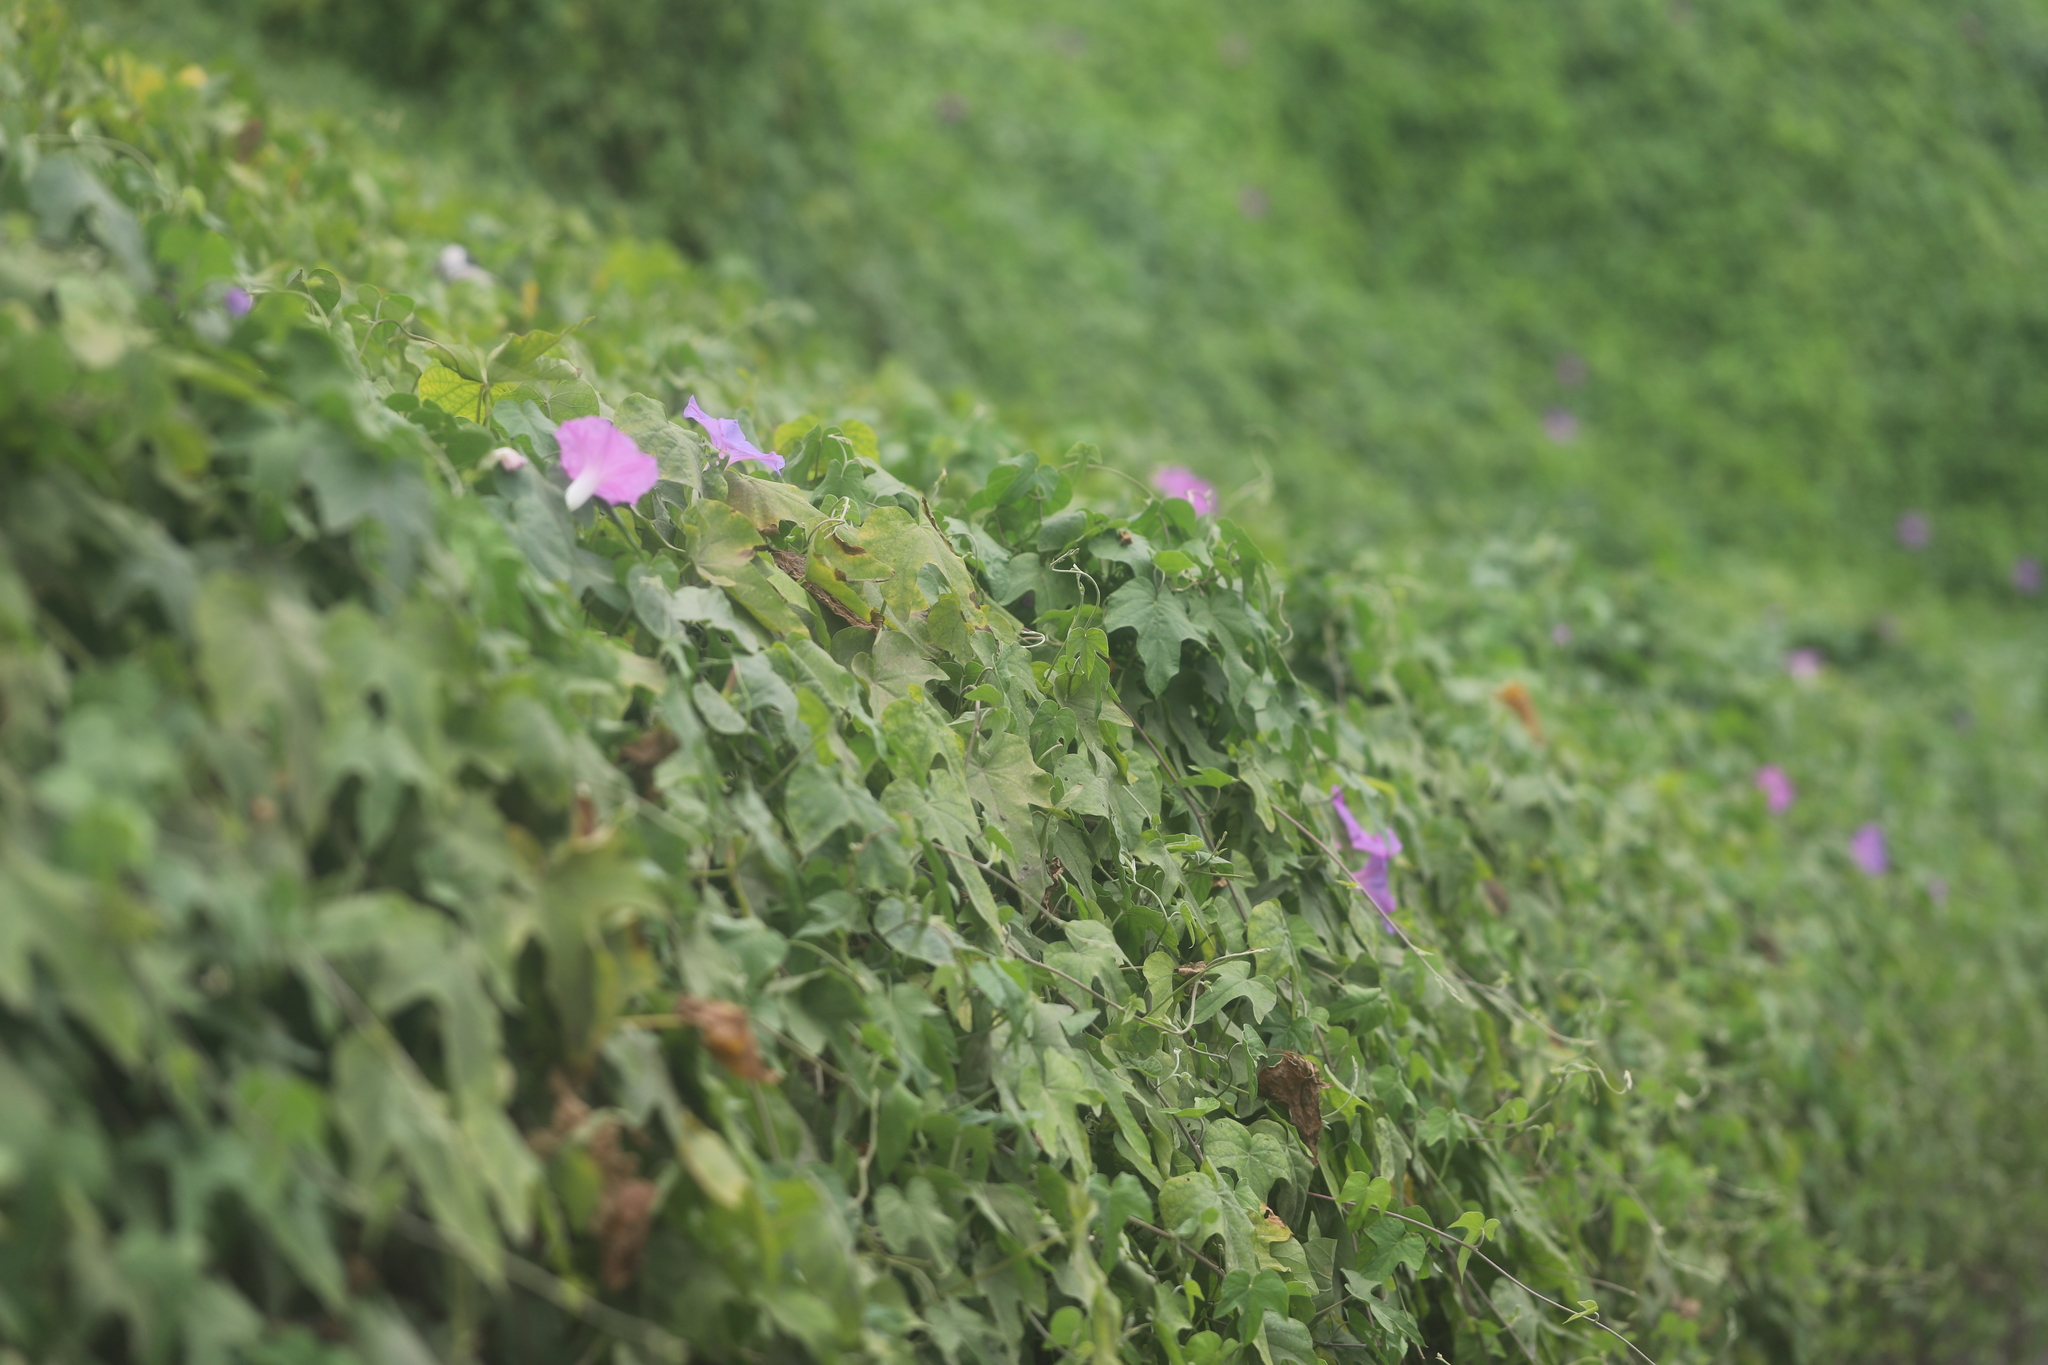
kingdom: Plantae
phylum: Tracheophyta
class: Magnoliopsida
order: Solanales
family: Convolvulaceae
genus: Ipomoea
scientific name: Ipomoea indica
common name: Blue dawnflower
